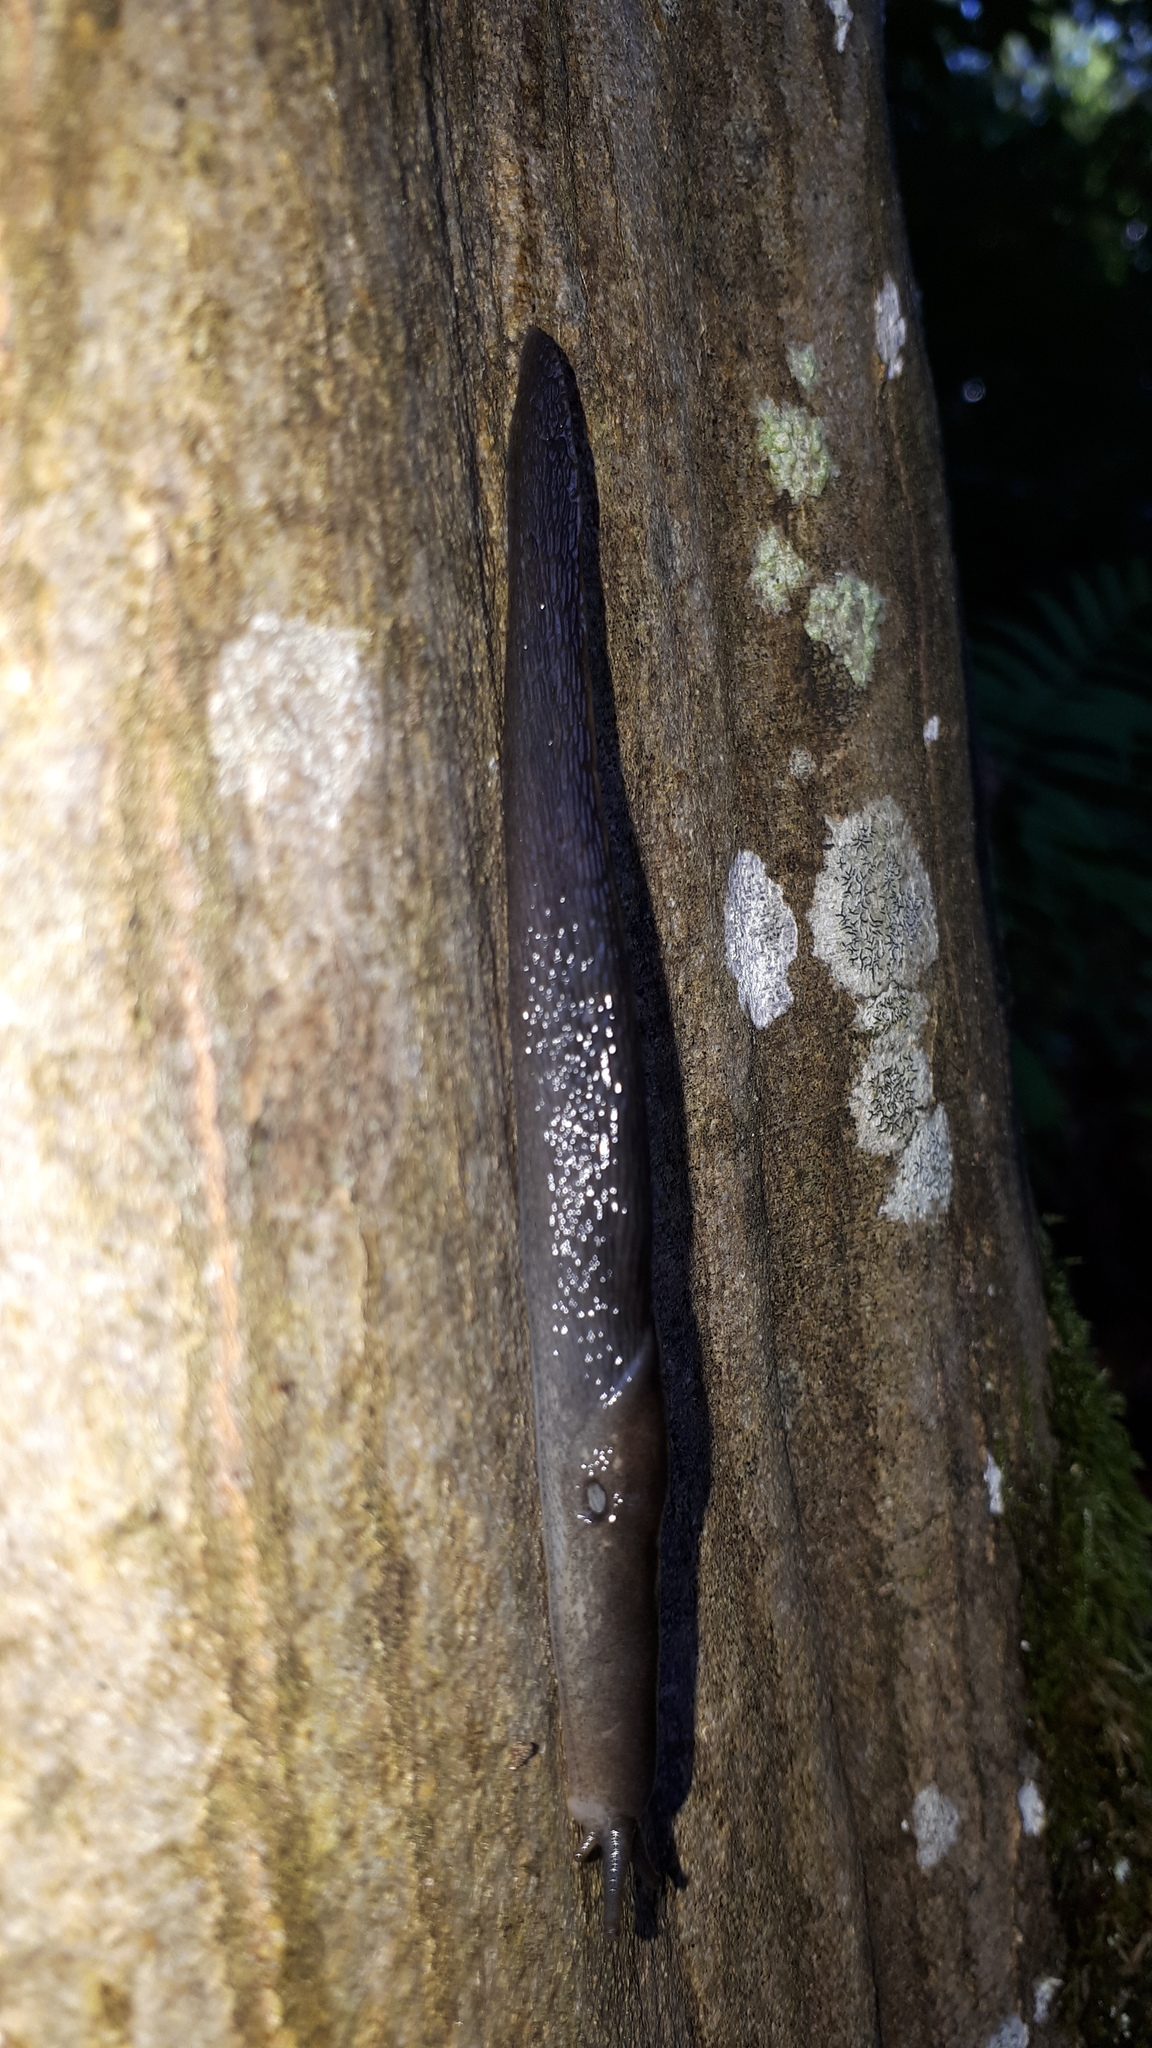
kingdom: Animalia
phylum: Mollusca
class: Gastropoda
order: Stylommatophora
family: Limacidae
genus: Limax
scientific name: Limax cinereoniger
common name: Ash-black slug
